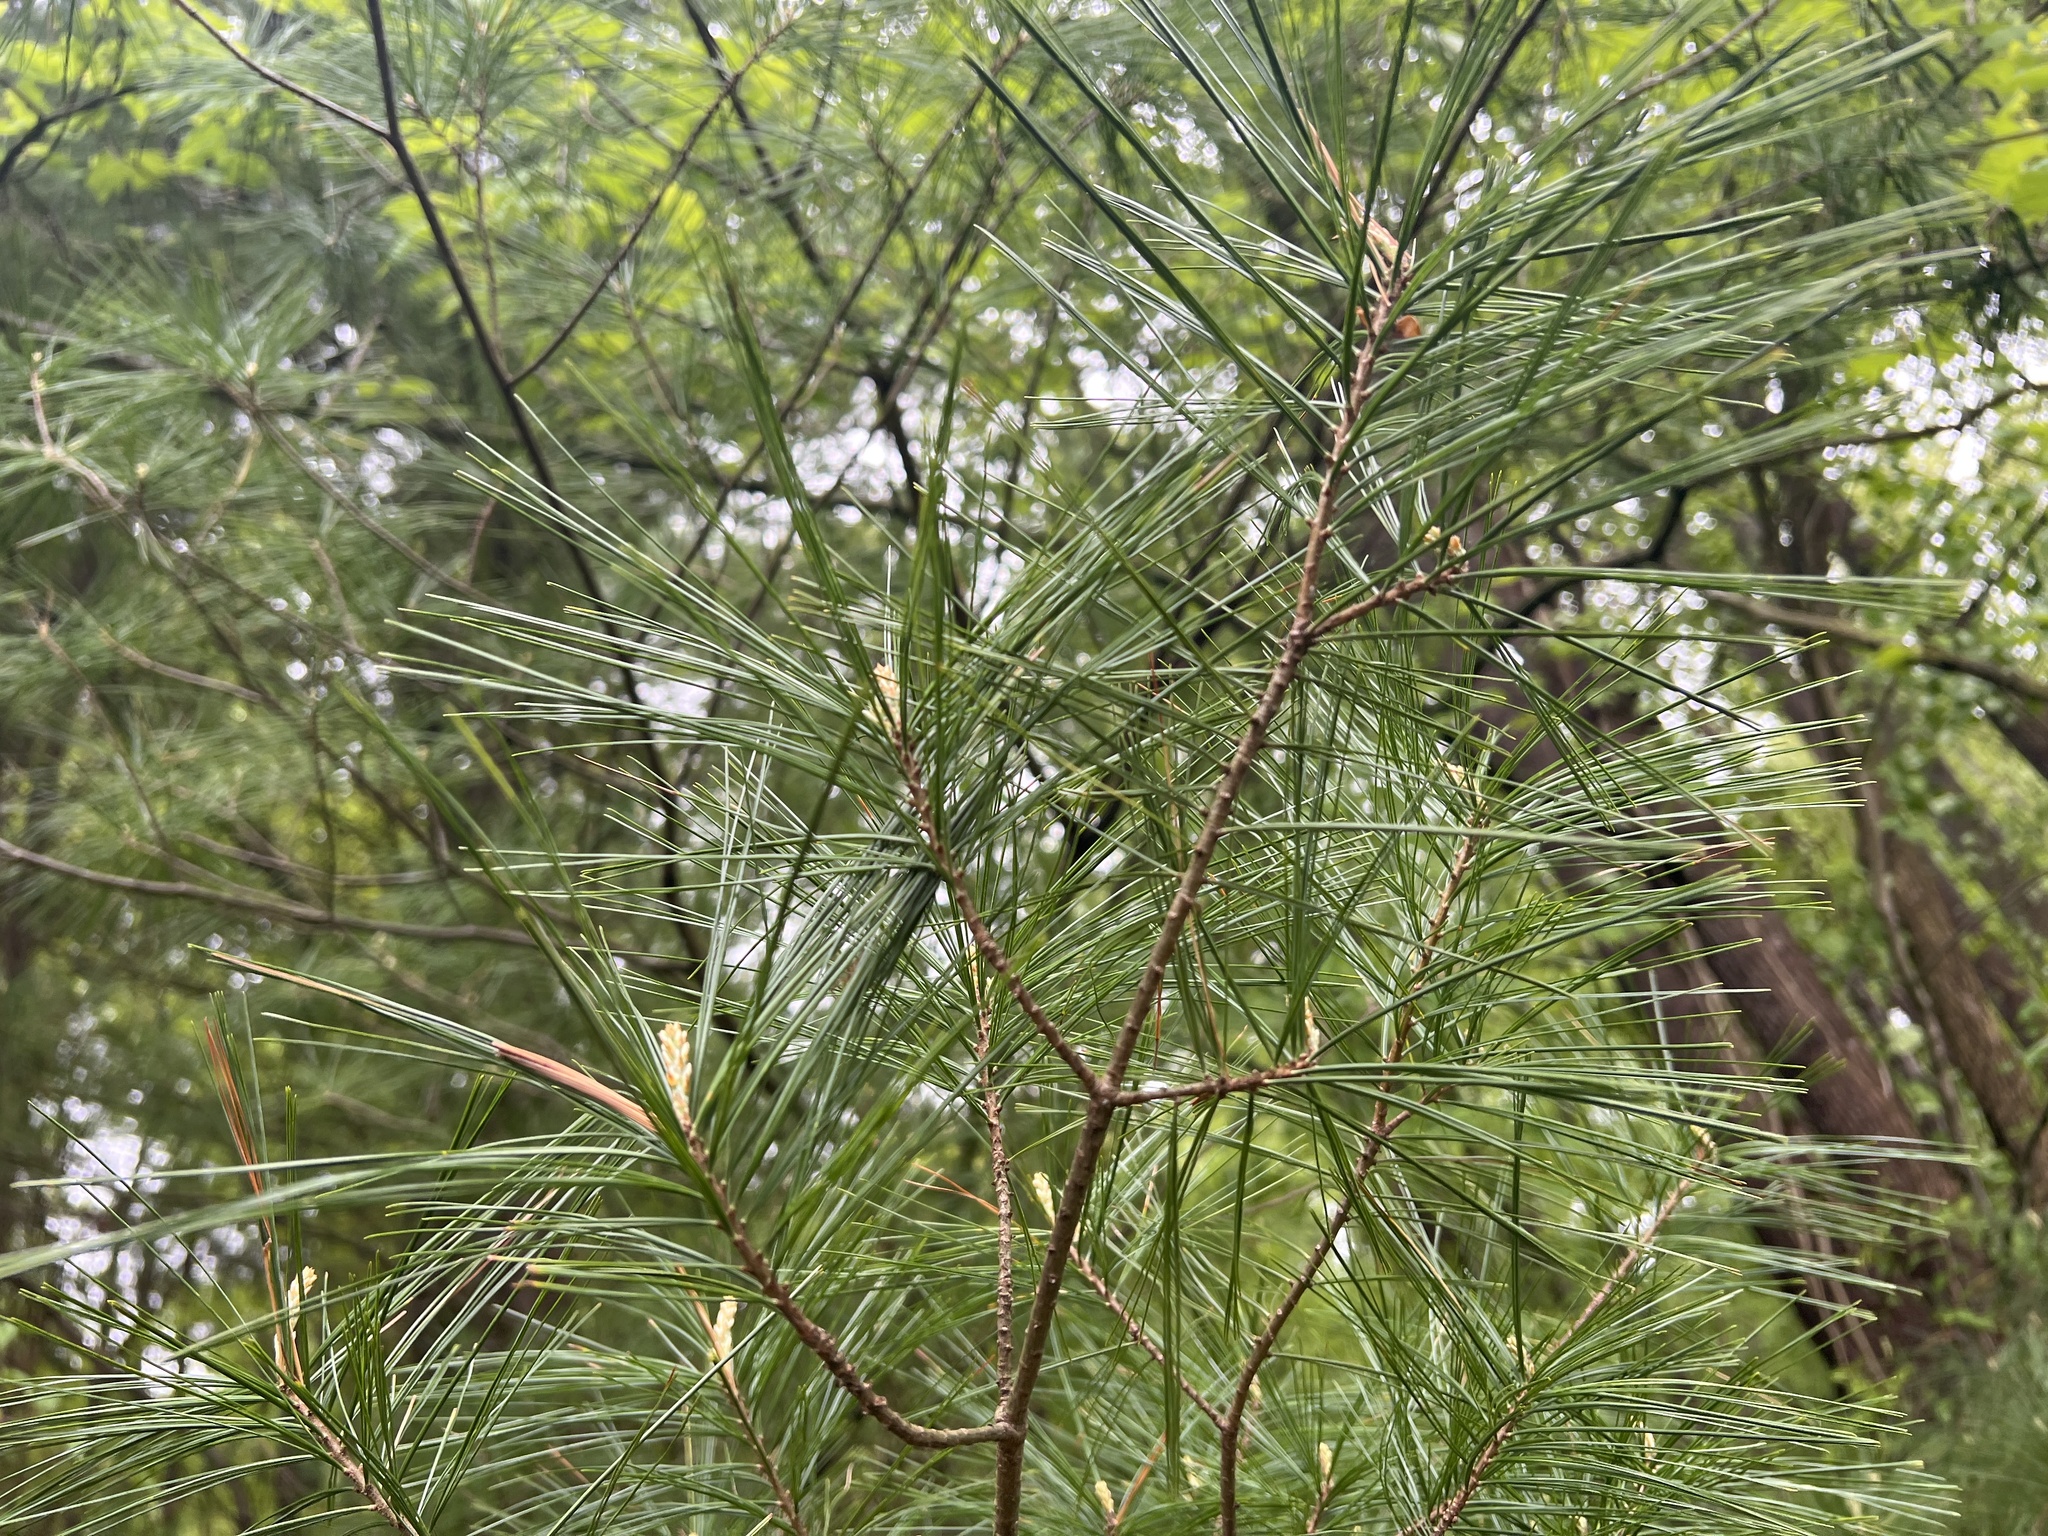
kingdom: Plantae
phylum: Tracheophyta
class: Pinopsida
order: Pinales
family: Pinaceae
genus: Pinus
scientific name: Pinus strobus
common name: Weymouth pine
